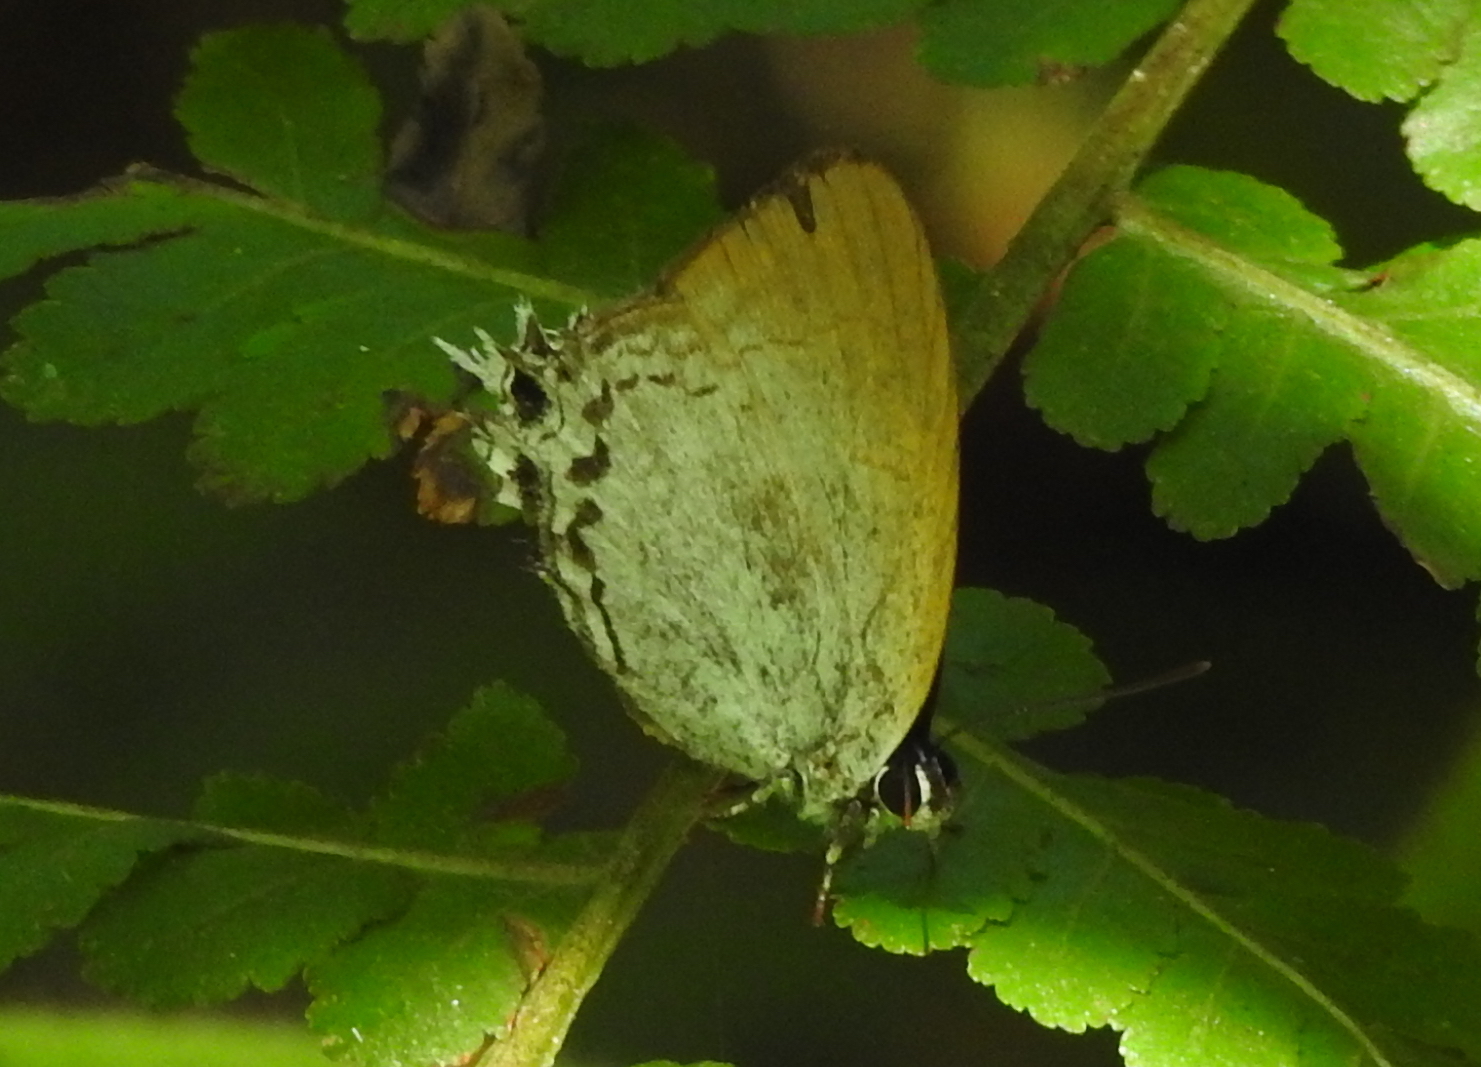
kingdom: Animalia
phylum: Arthropoda
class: Insecta
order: Lepidoptera
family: Lycaenidae
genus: Cheritra
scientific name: Cheritra freja
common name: Common imperial
